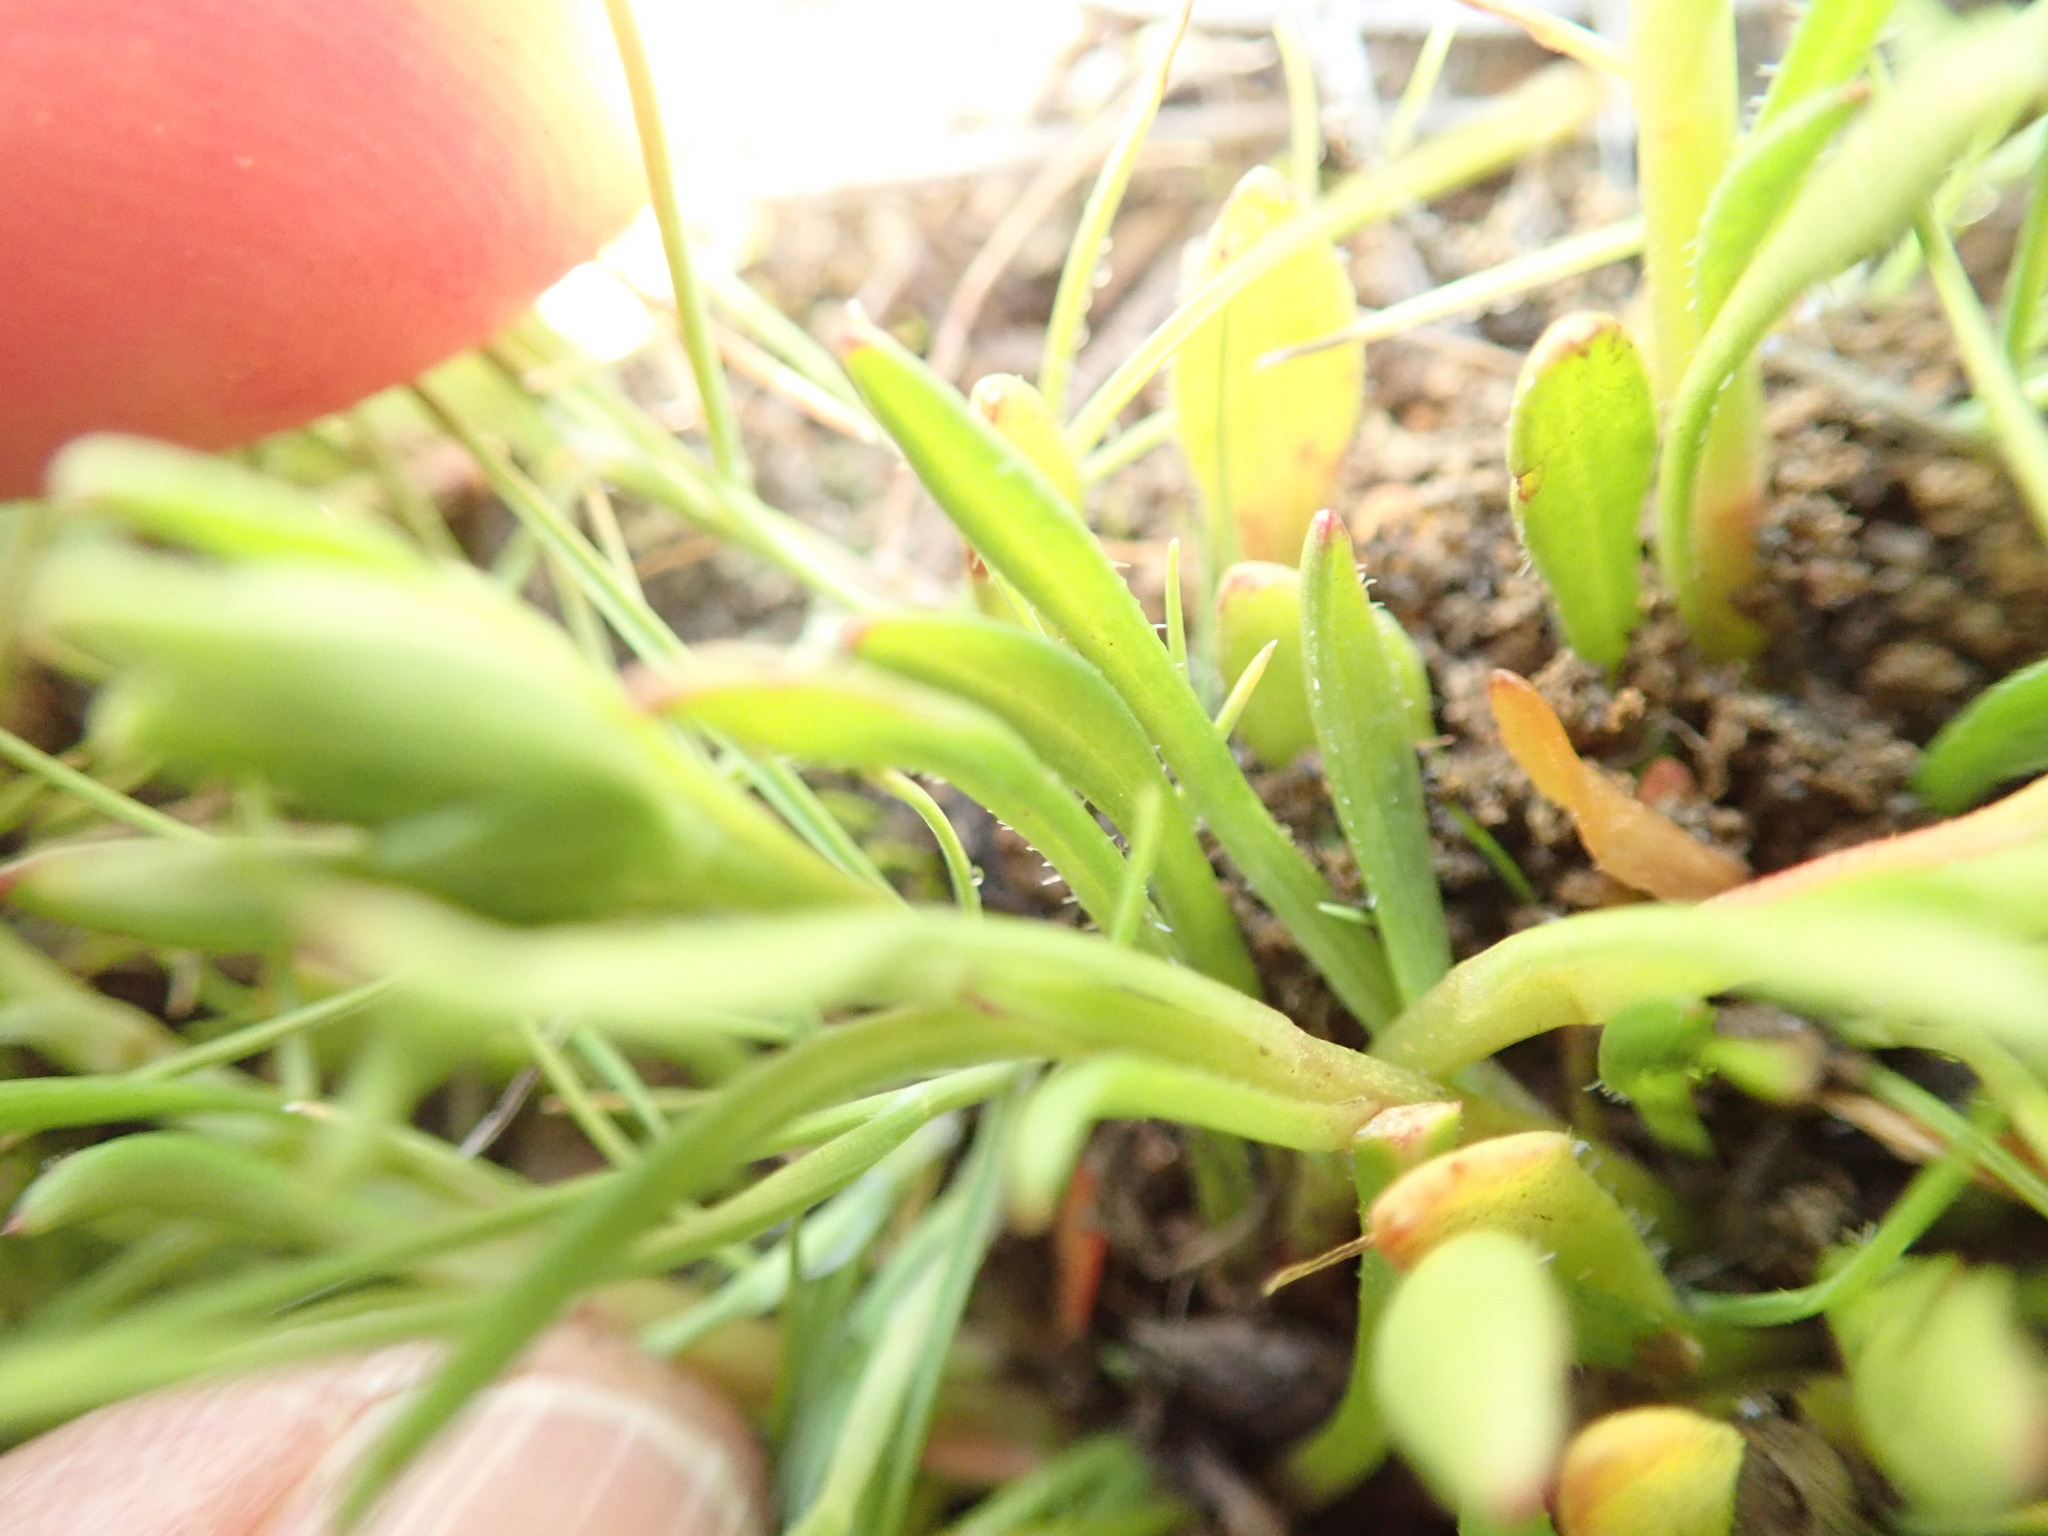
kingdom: Plantae
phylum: Tracheophyta
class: Magnoliopsida
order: Caryophyllales
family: Montiaceae
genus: Calandrinia
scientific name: Calandrinia menziesii
